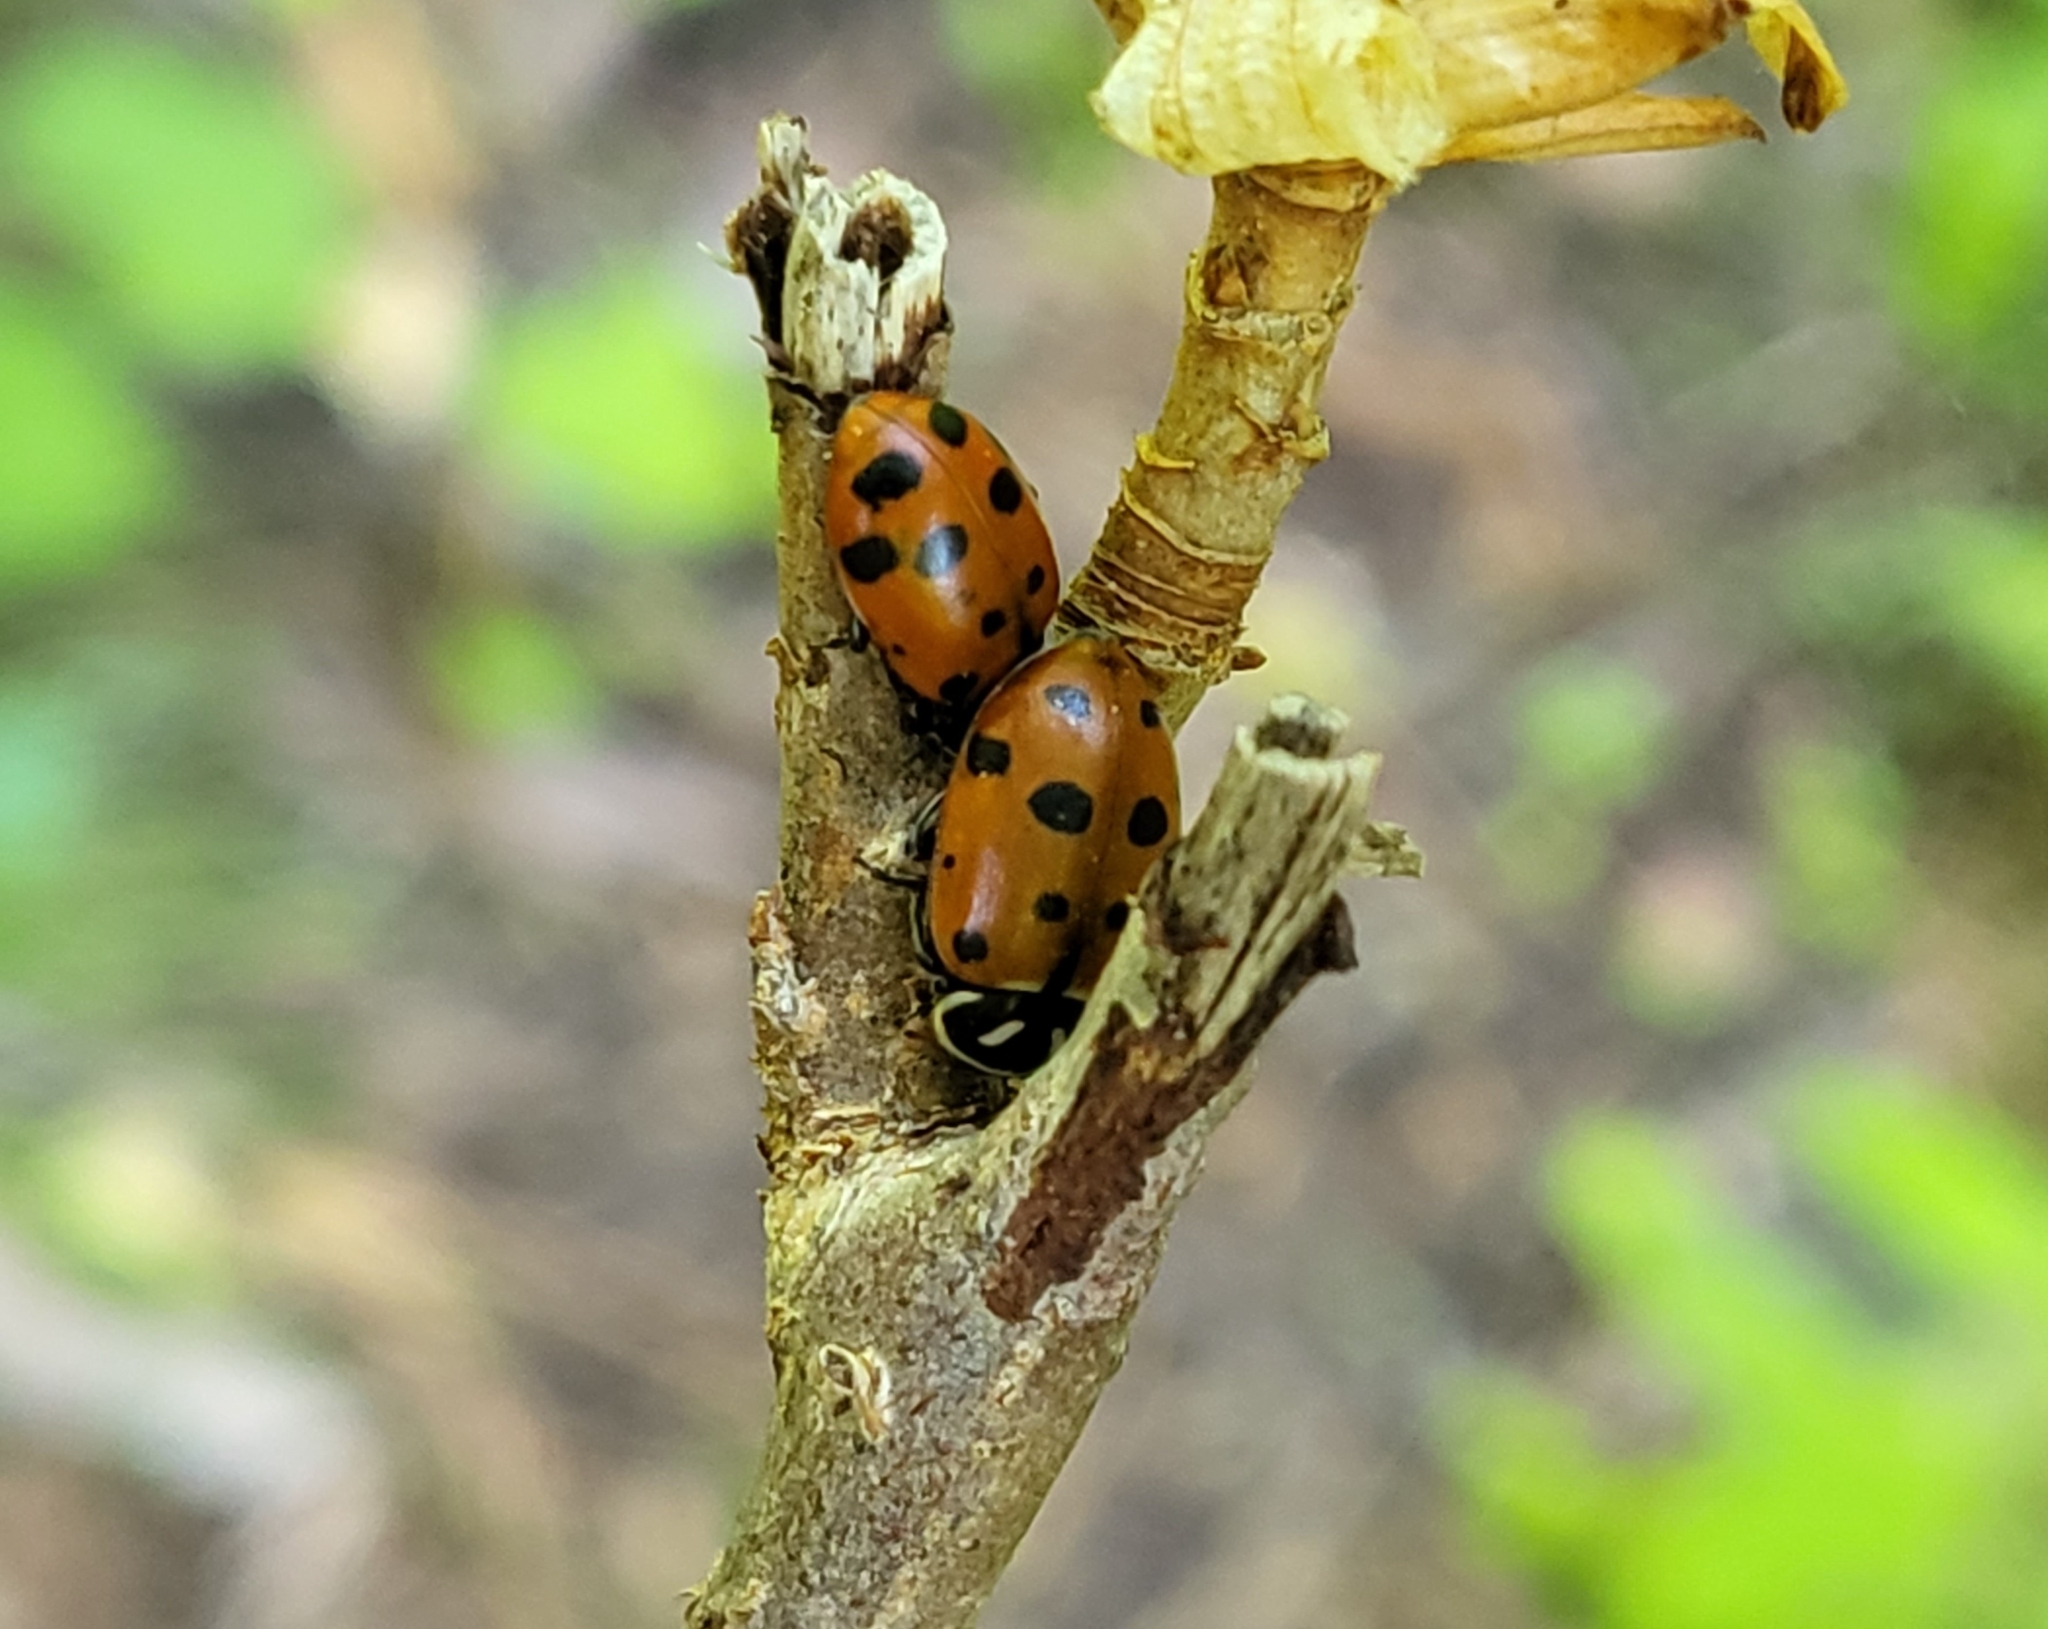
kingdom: Animalia
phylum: Arthropoda
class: Insecta
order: Coleoptera
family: Coccinellidae
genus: Hippodamia
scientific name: Hippodamia convergens
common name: Convergent lady beetle
